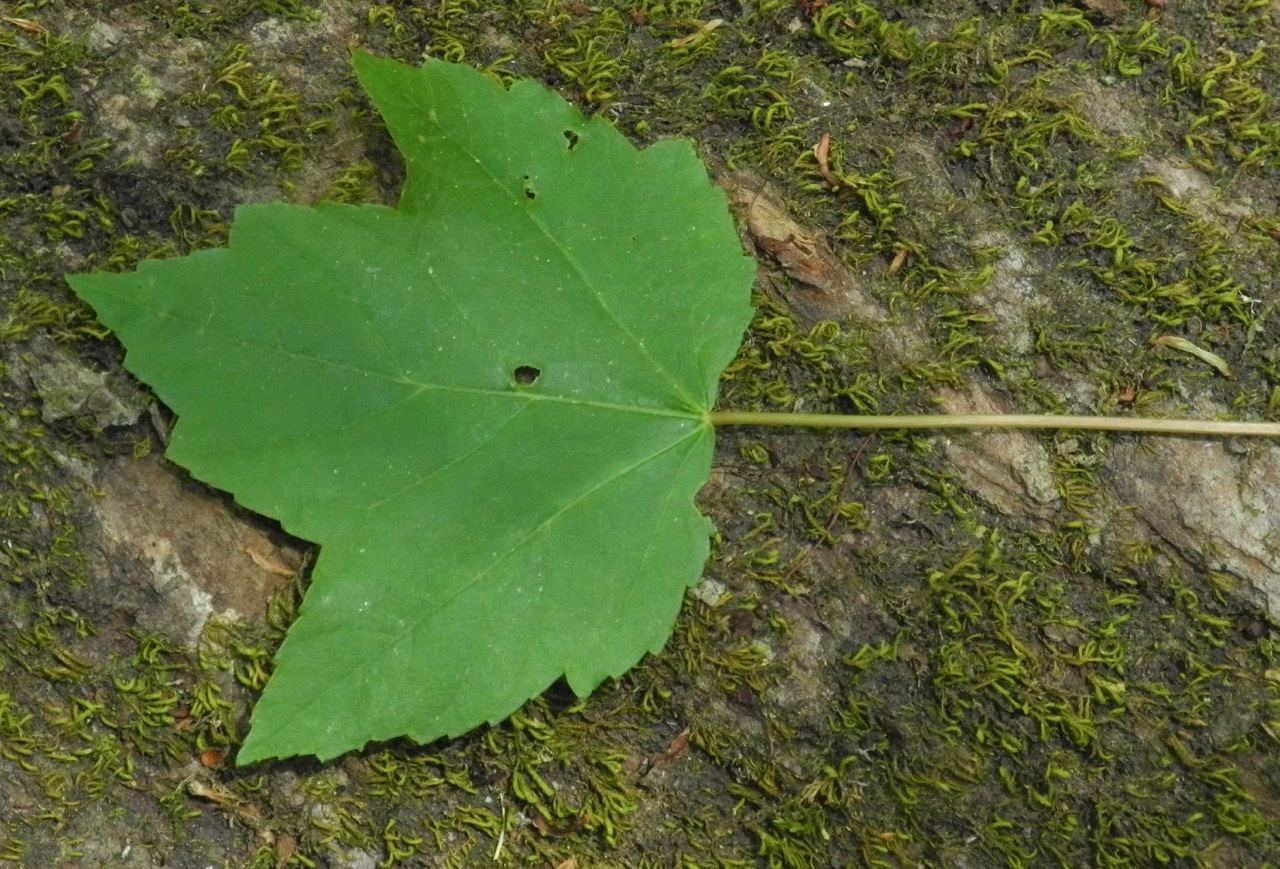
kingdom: Plantae
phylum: Tracheophyta
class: Magnoliopsida
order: Sapindales
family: Sapindaceae
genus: Acer
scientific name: Acer freemanii
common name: Freeman maple
